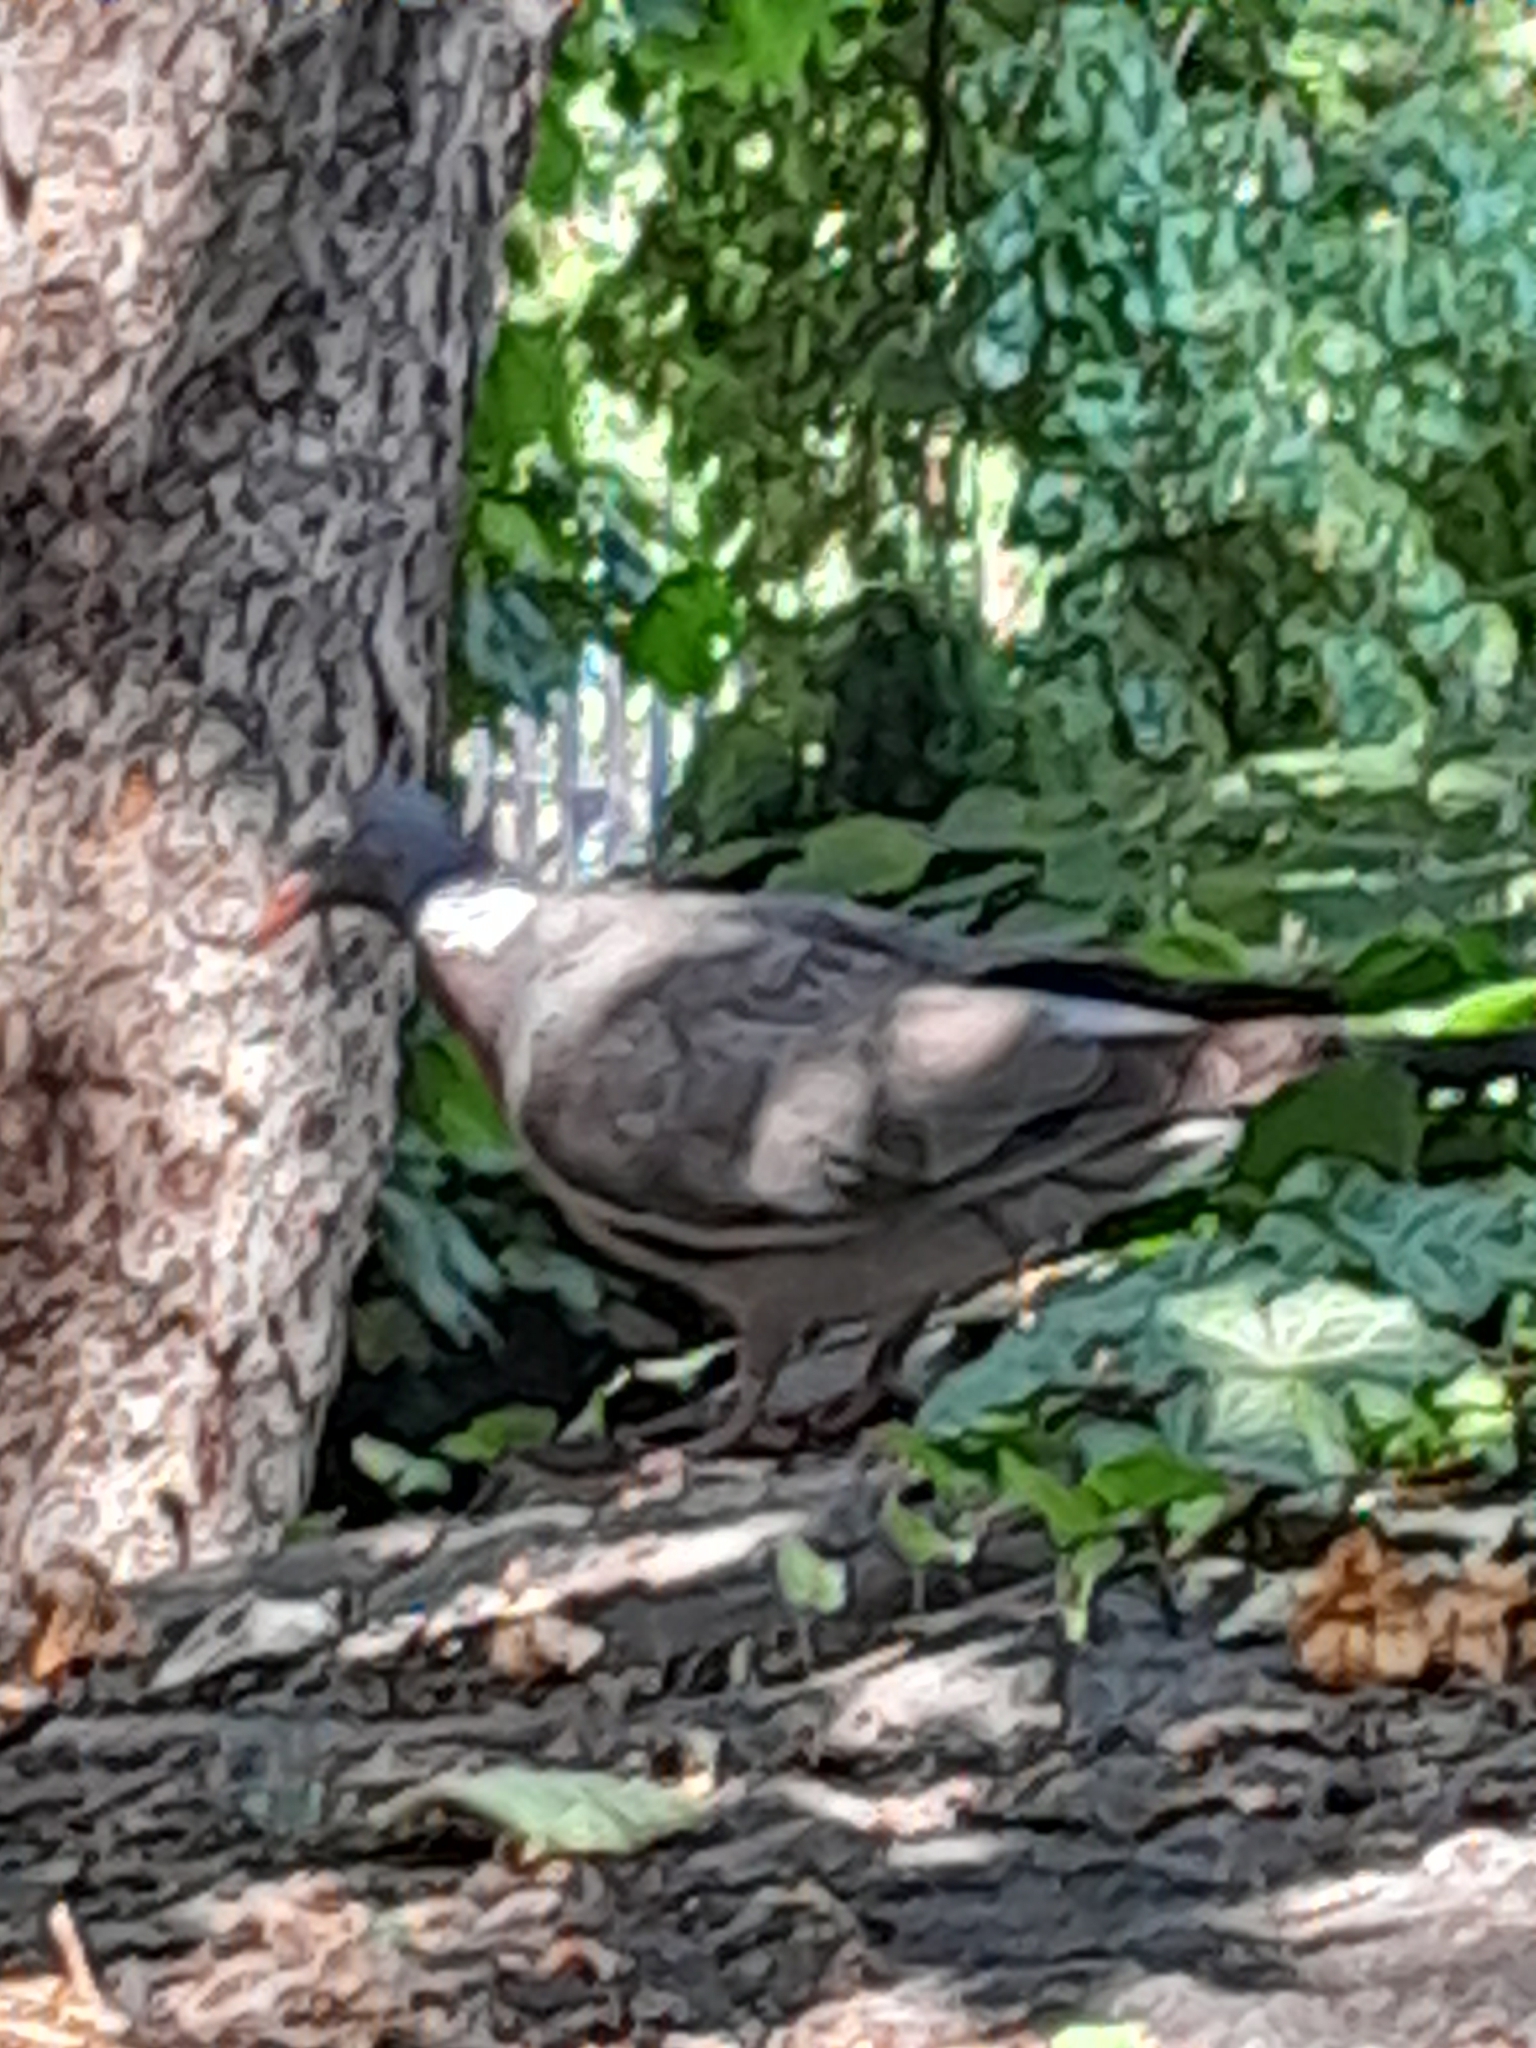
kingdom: Animalia
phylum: Chordata
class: Aves
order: Columbiformes
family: Columbidae
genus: Columba
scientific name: Columba palumbus
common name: Common wood pigeon
